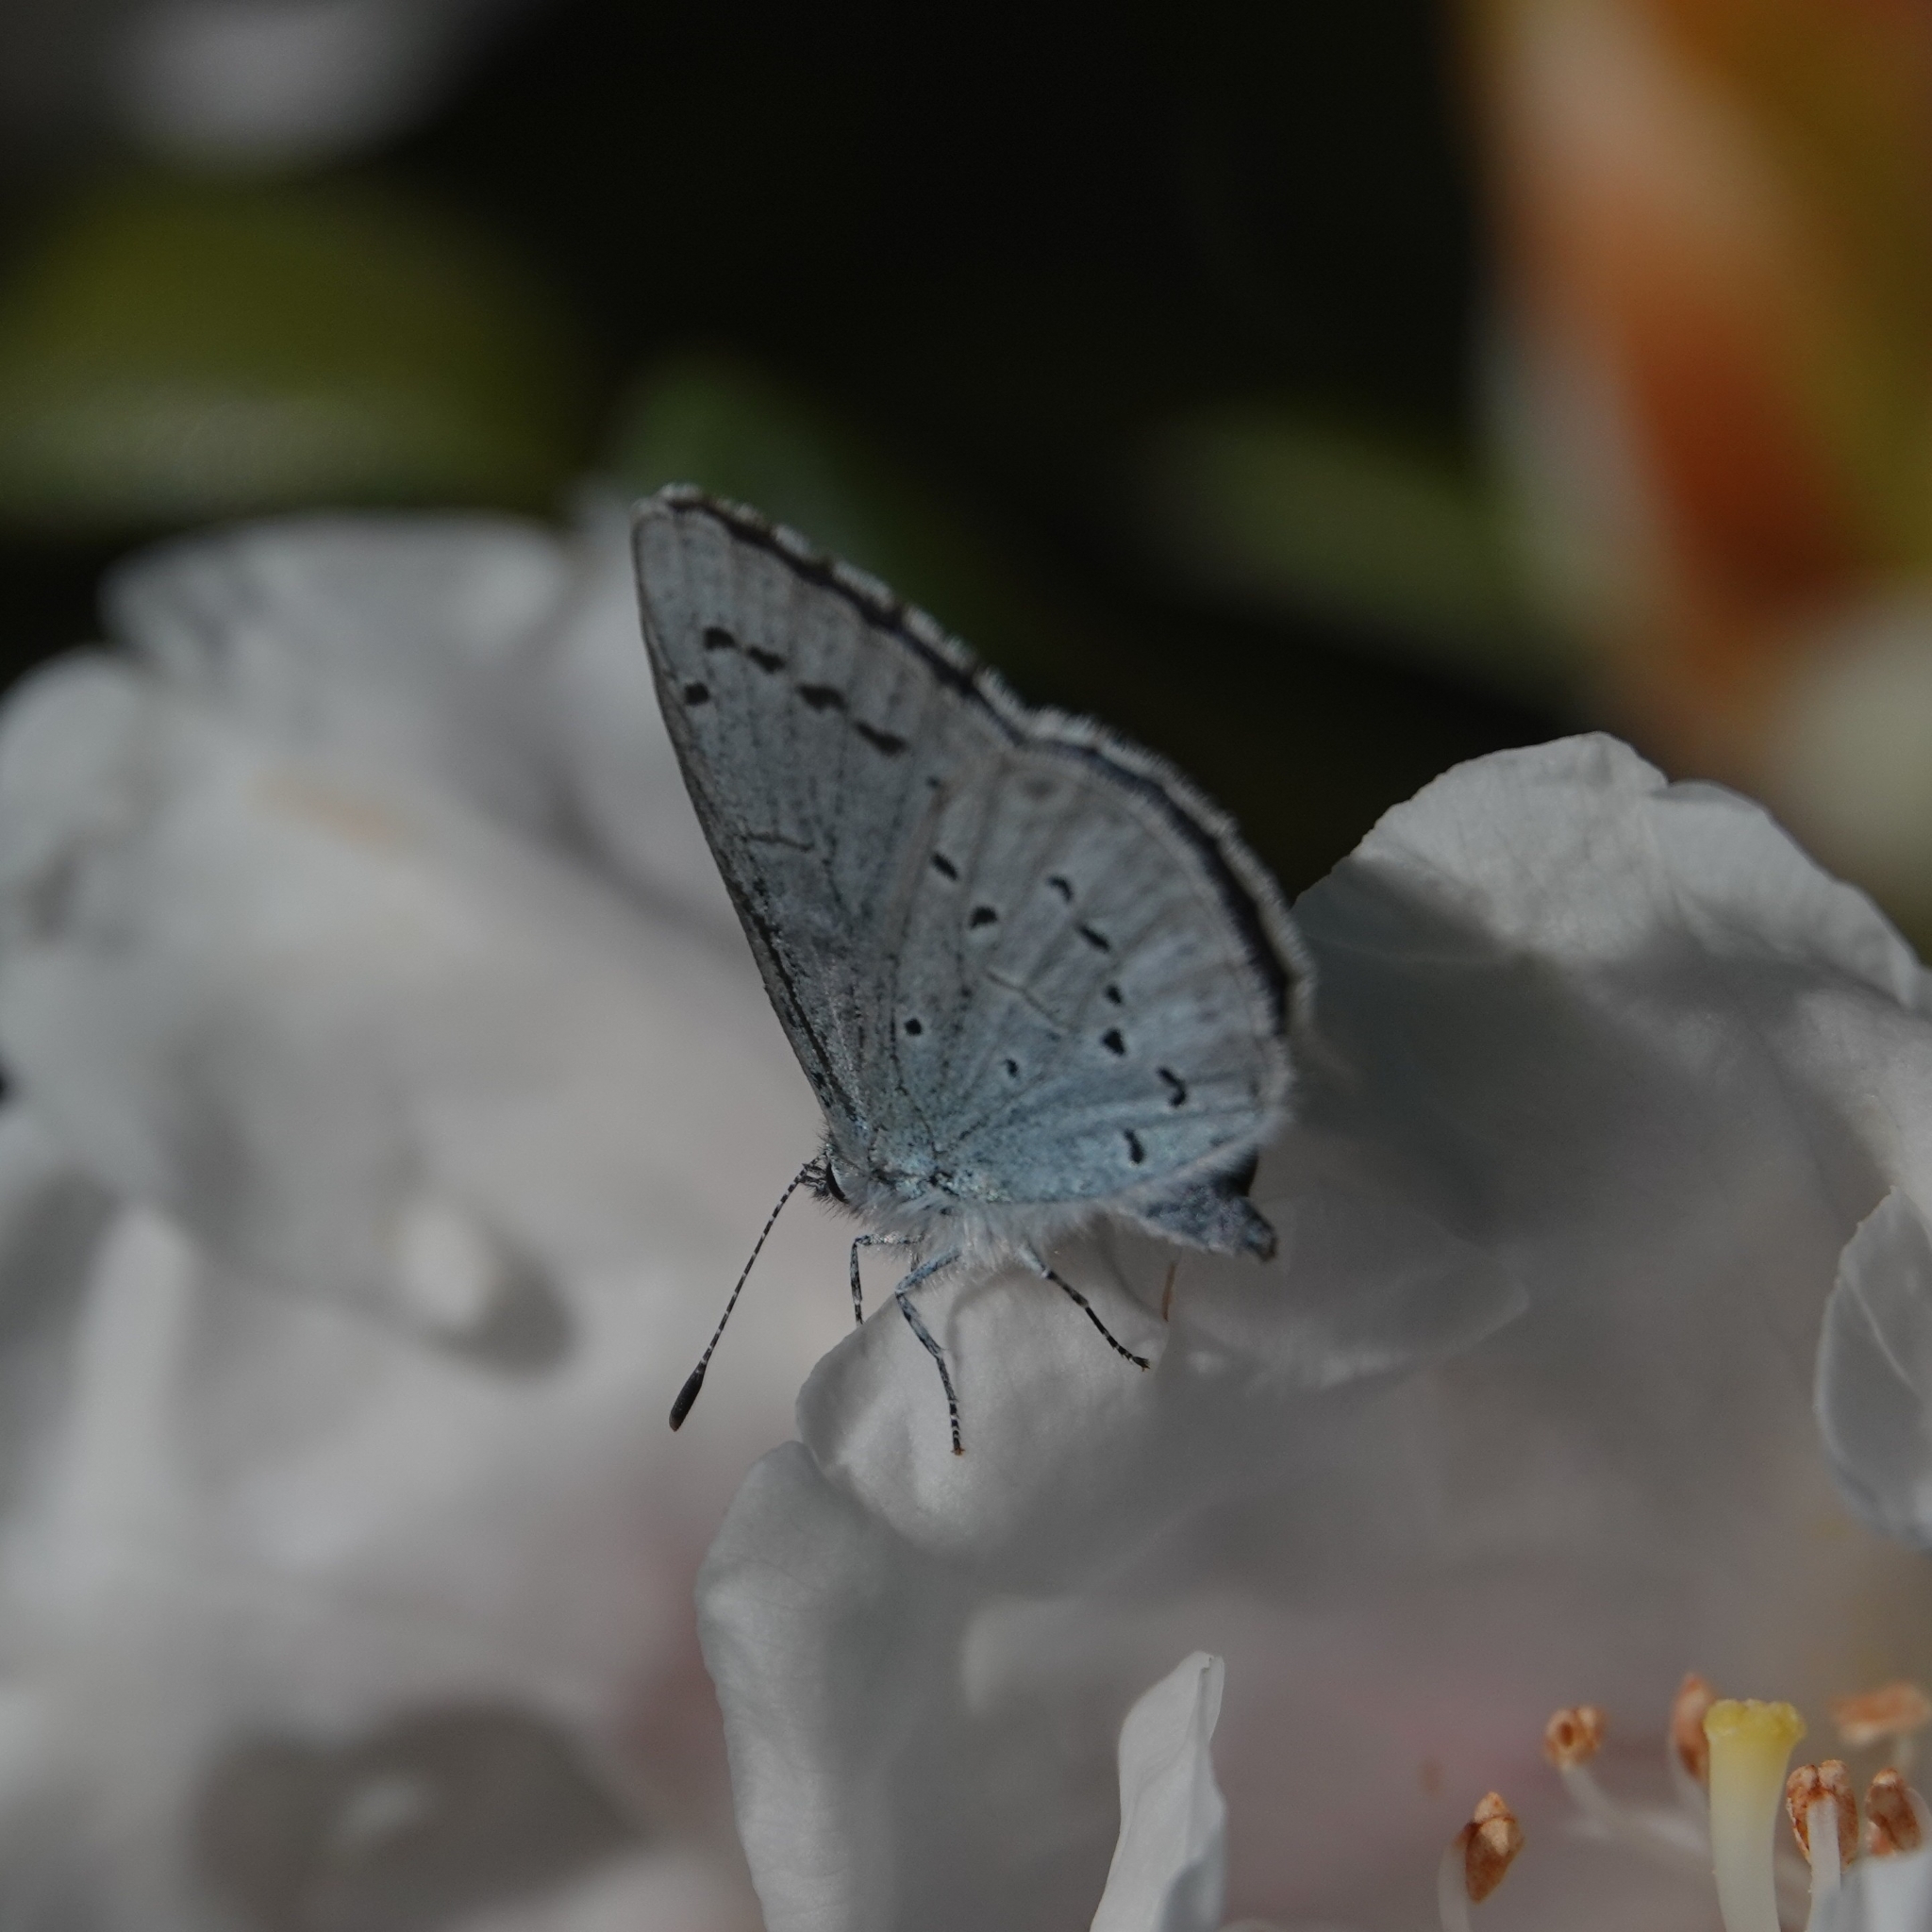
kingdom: Animalia
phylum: Arthropoda
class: Insecta
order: Lepidoptera
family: Lycaenidae
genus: Celastrina
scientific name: Celastrina argiolus
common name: Holly blue
